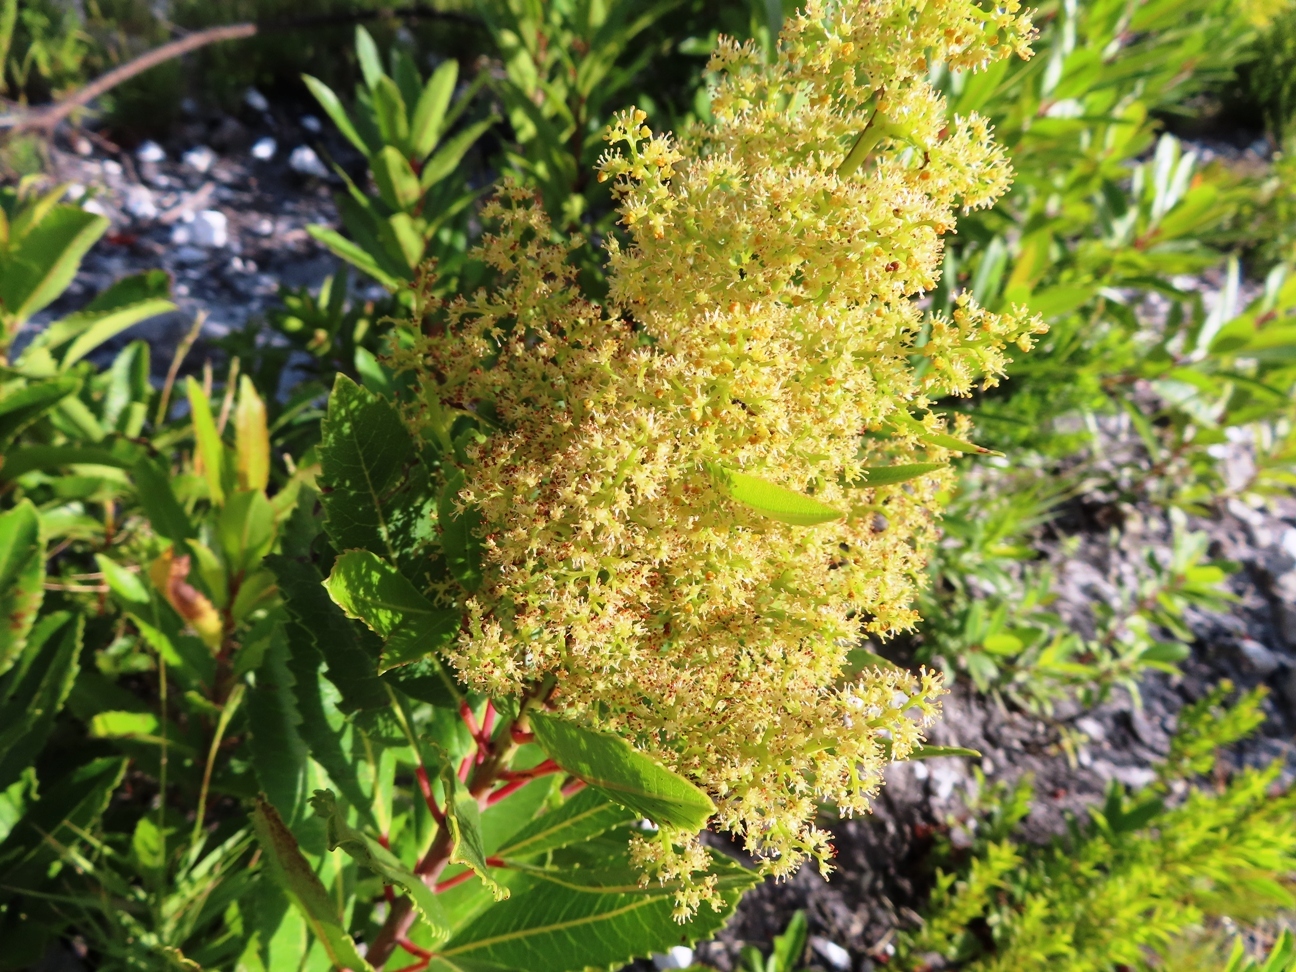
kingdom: Plantae
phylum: Tracheophyta
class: Magnoliopsida
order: Sapindales
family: Anacardiaceae
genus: Laurophyllus
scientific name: Laurophyllus capensis
